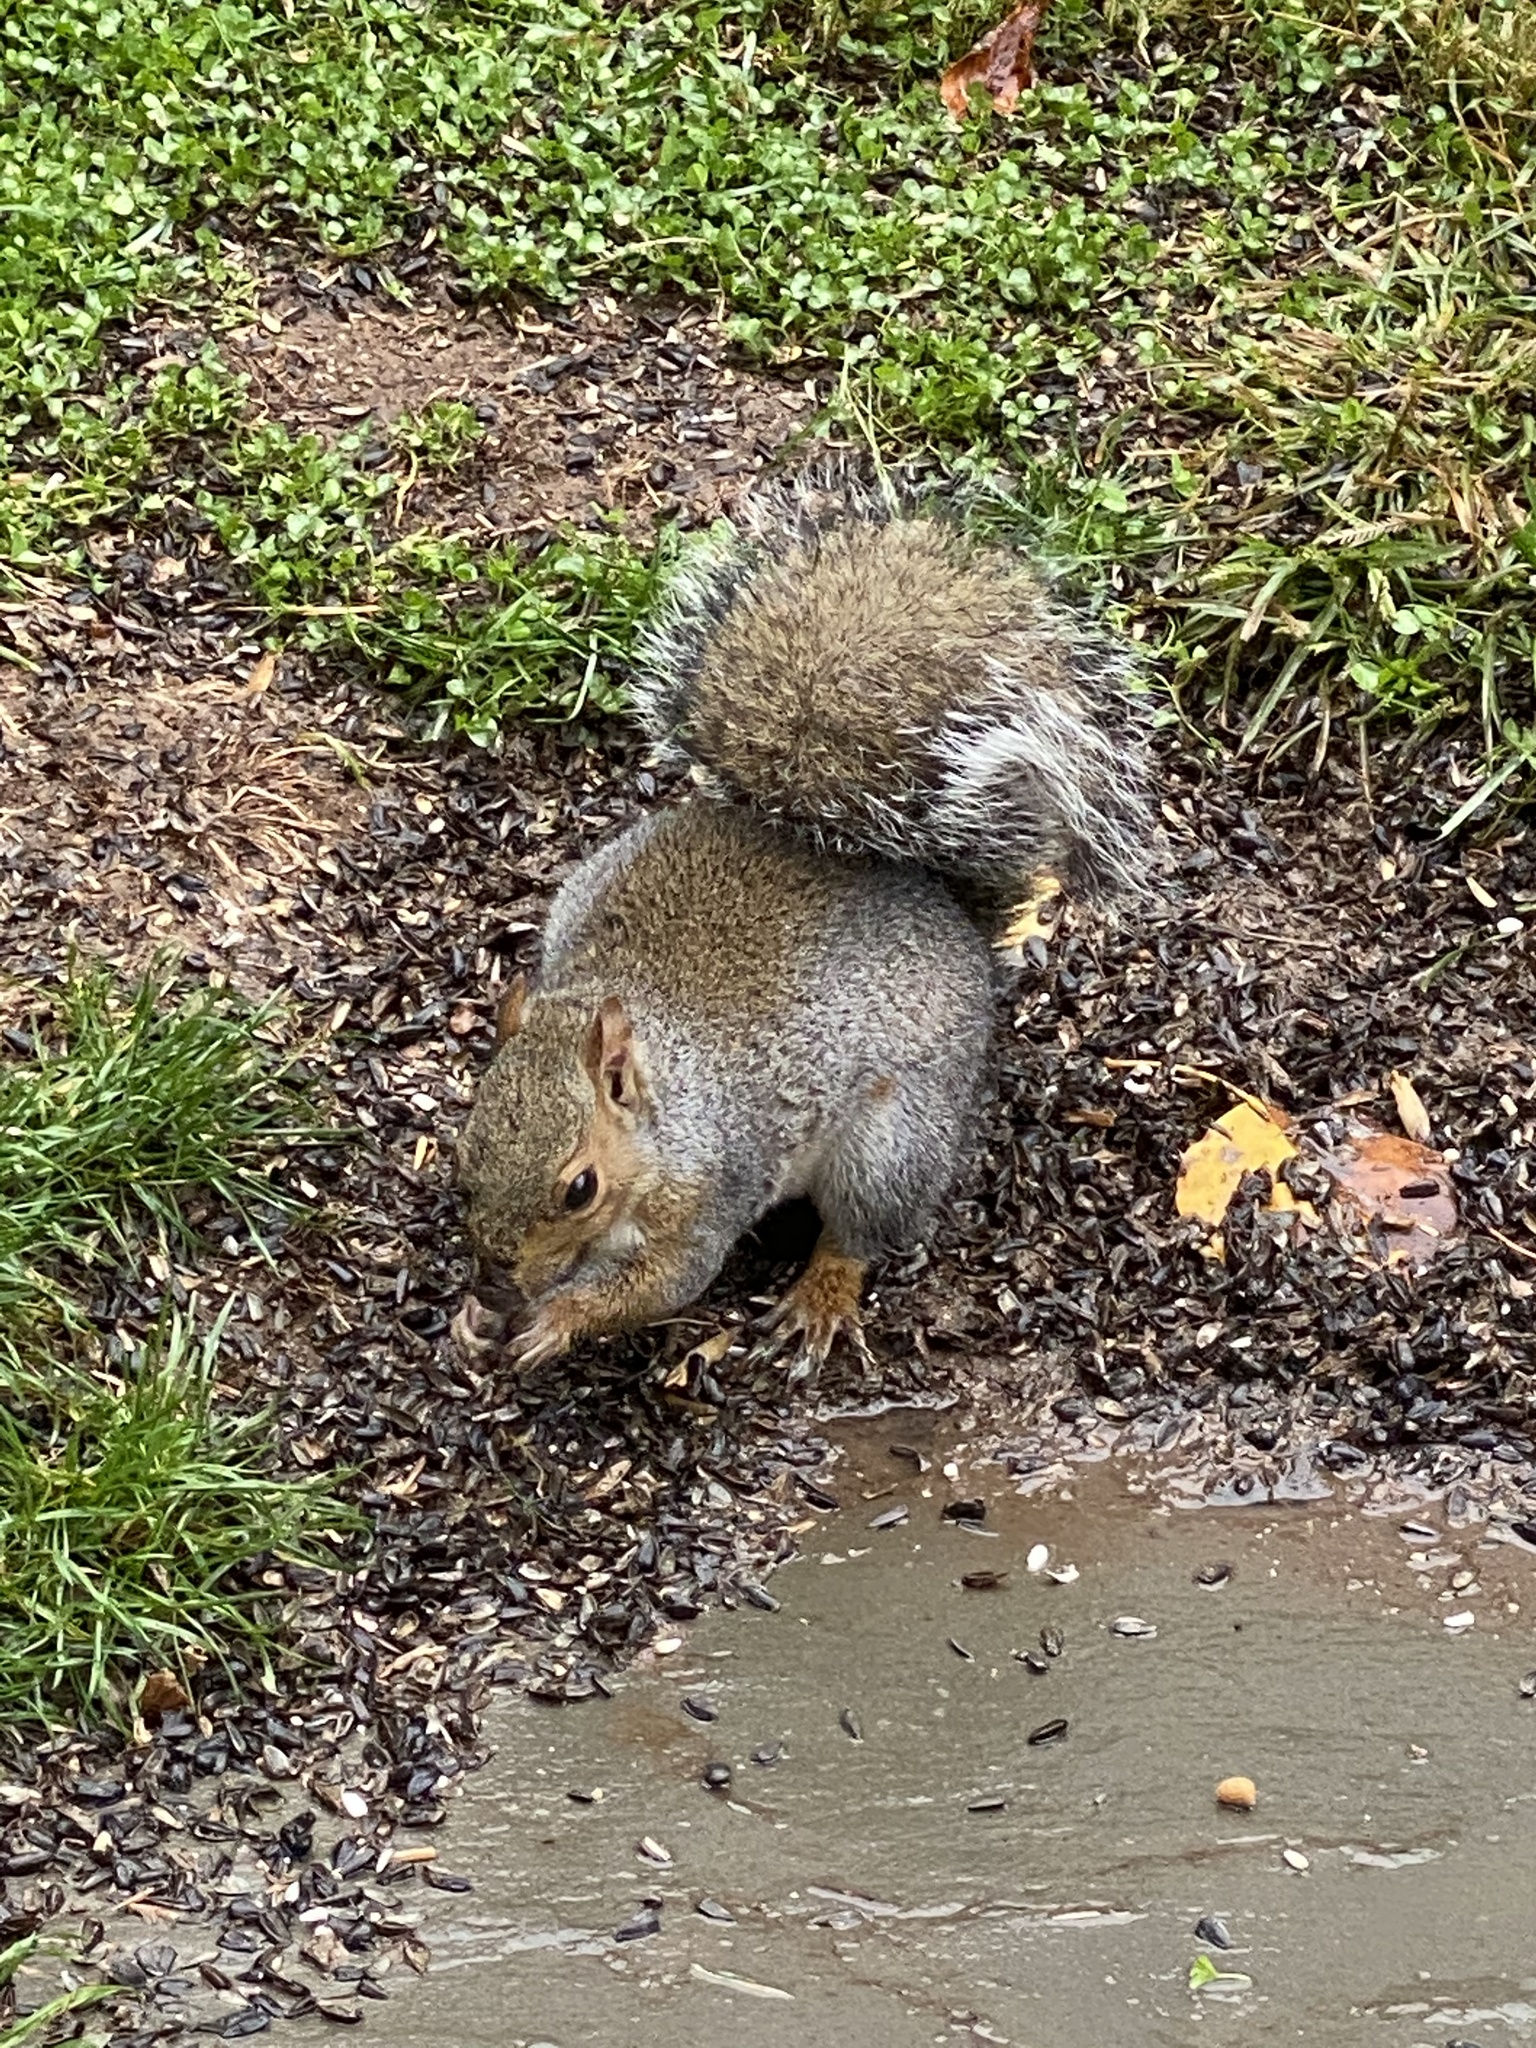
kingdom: Animalia
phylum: Chordata
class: Mammalia
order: Rodentia
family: Sciuridae
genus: Sciurus
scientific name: Sciurus carolinensis
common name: Eastern gray squirrel
